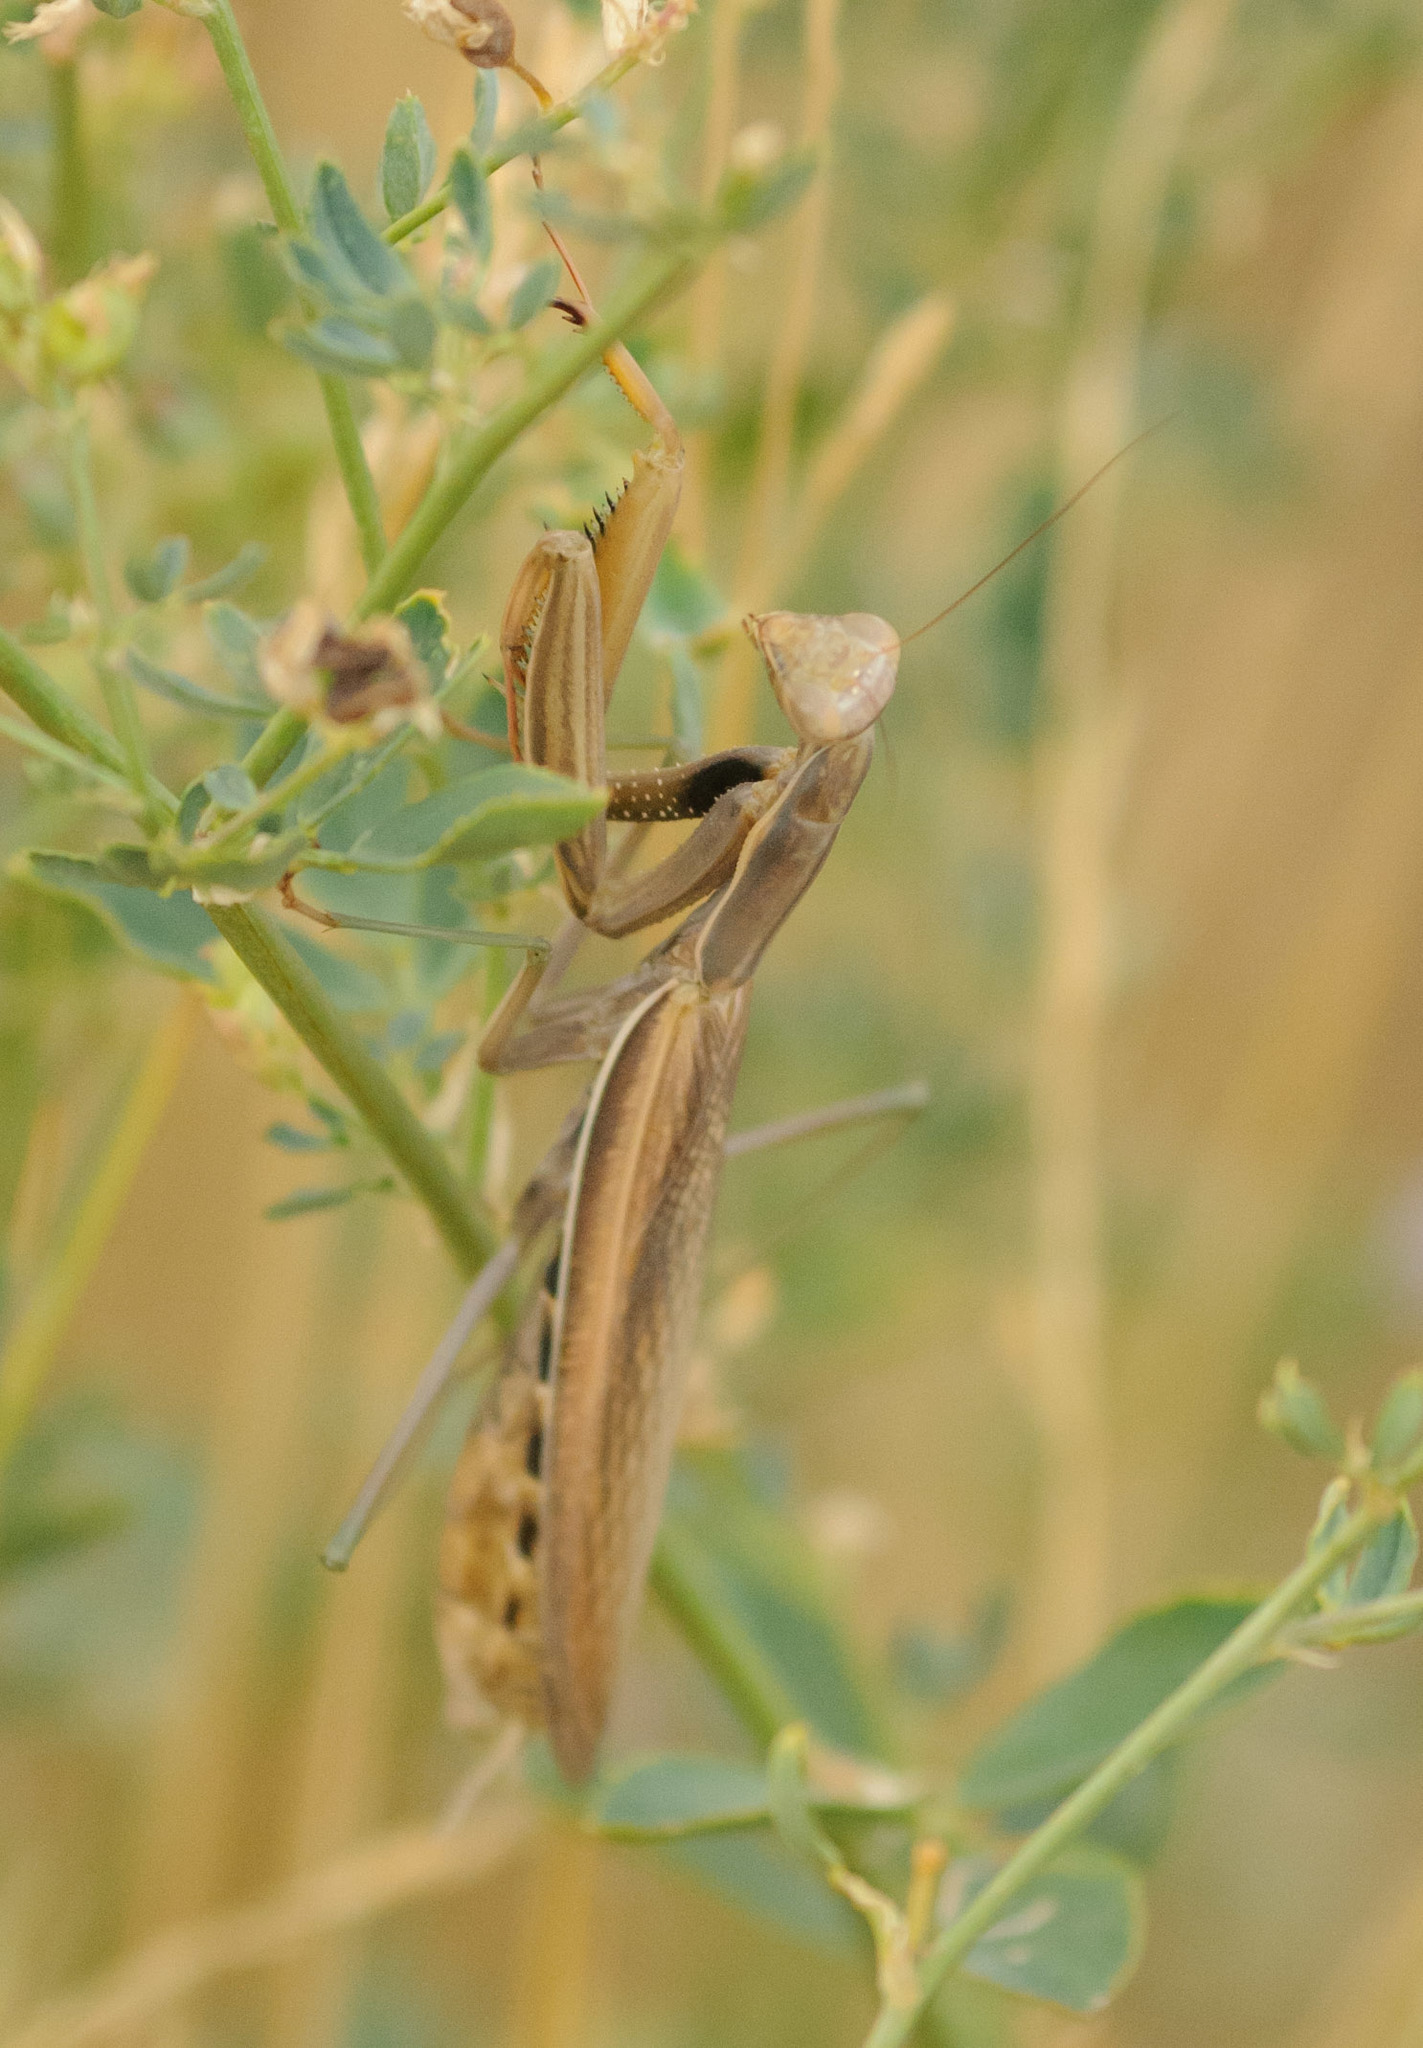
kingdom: Animalia
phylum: Arthropoda
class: Insecta
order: Mantodea
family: Mantidae
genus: Mantis
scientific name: Mantis religiosa
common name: Praying mantis
